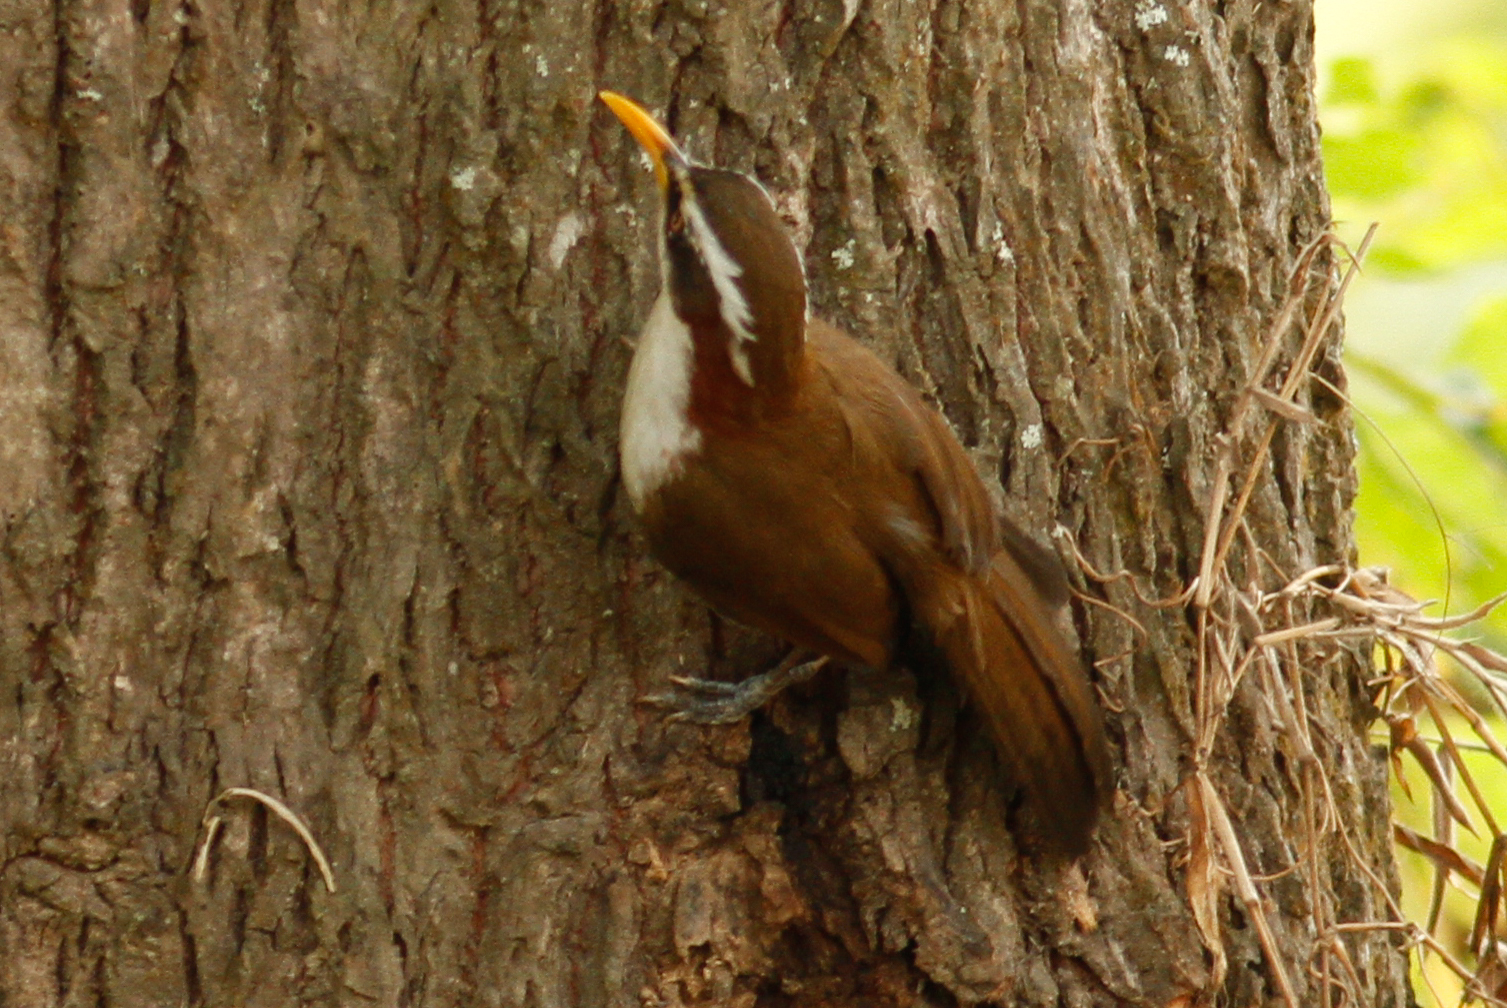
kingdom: Animalia
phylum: Chordata
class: Aves
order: Passeriformes
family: Timaliidae
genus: Pomatorhinus
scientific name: Pomatorhinus schisticeps
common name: White-browed scimitar babbler
